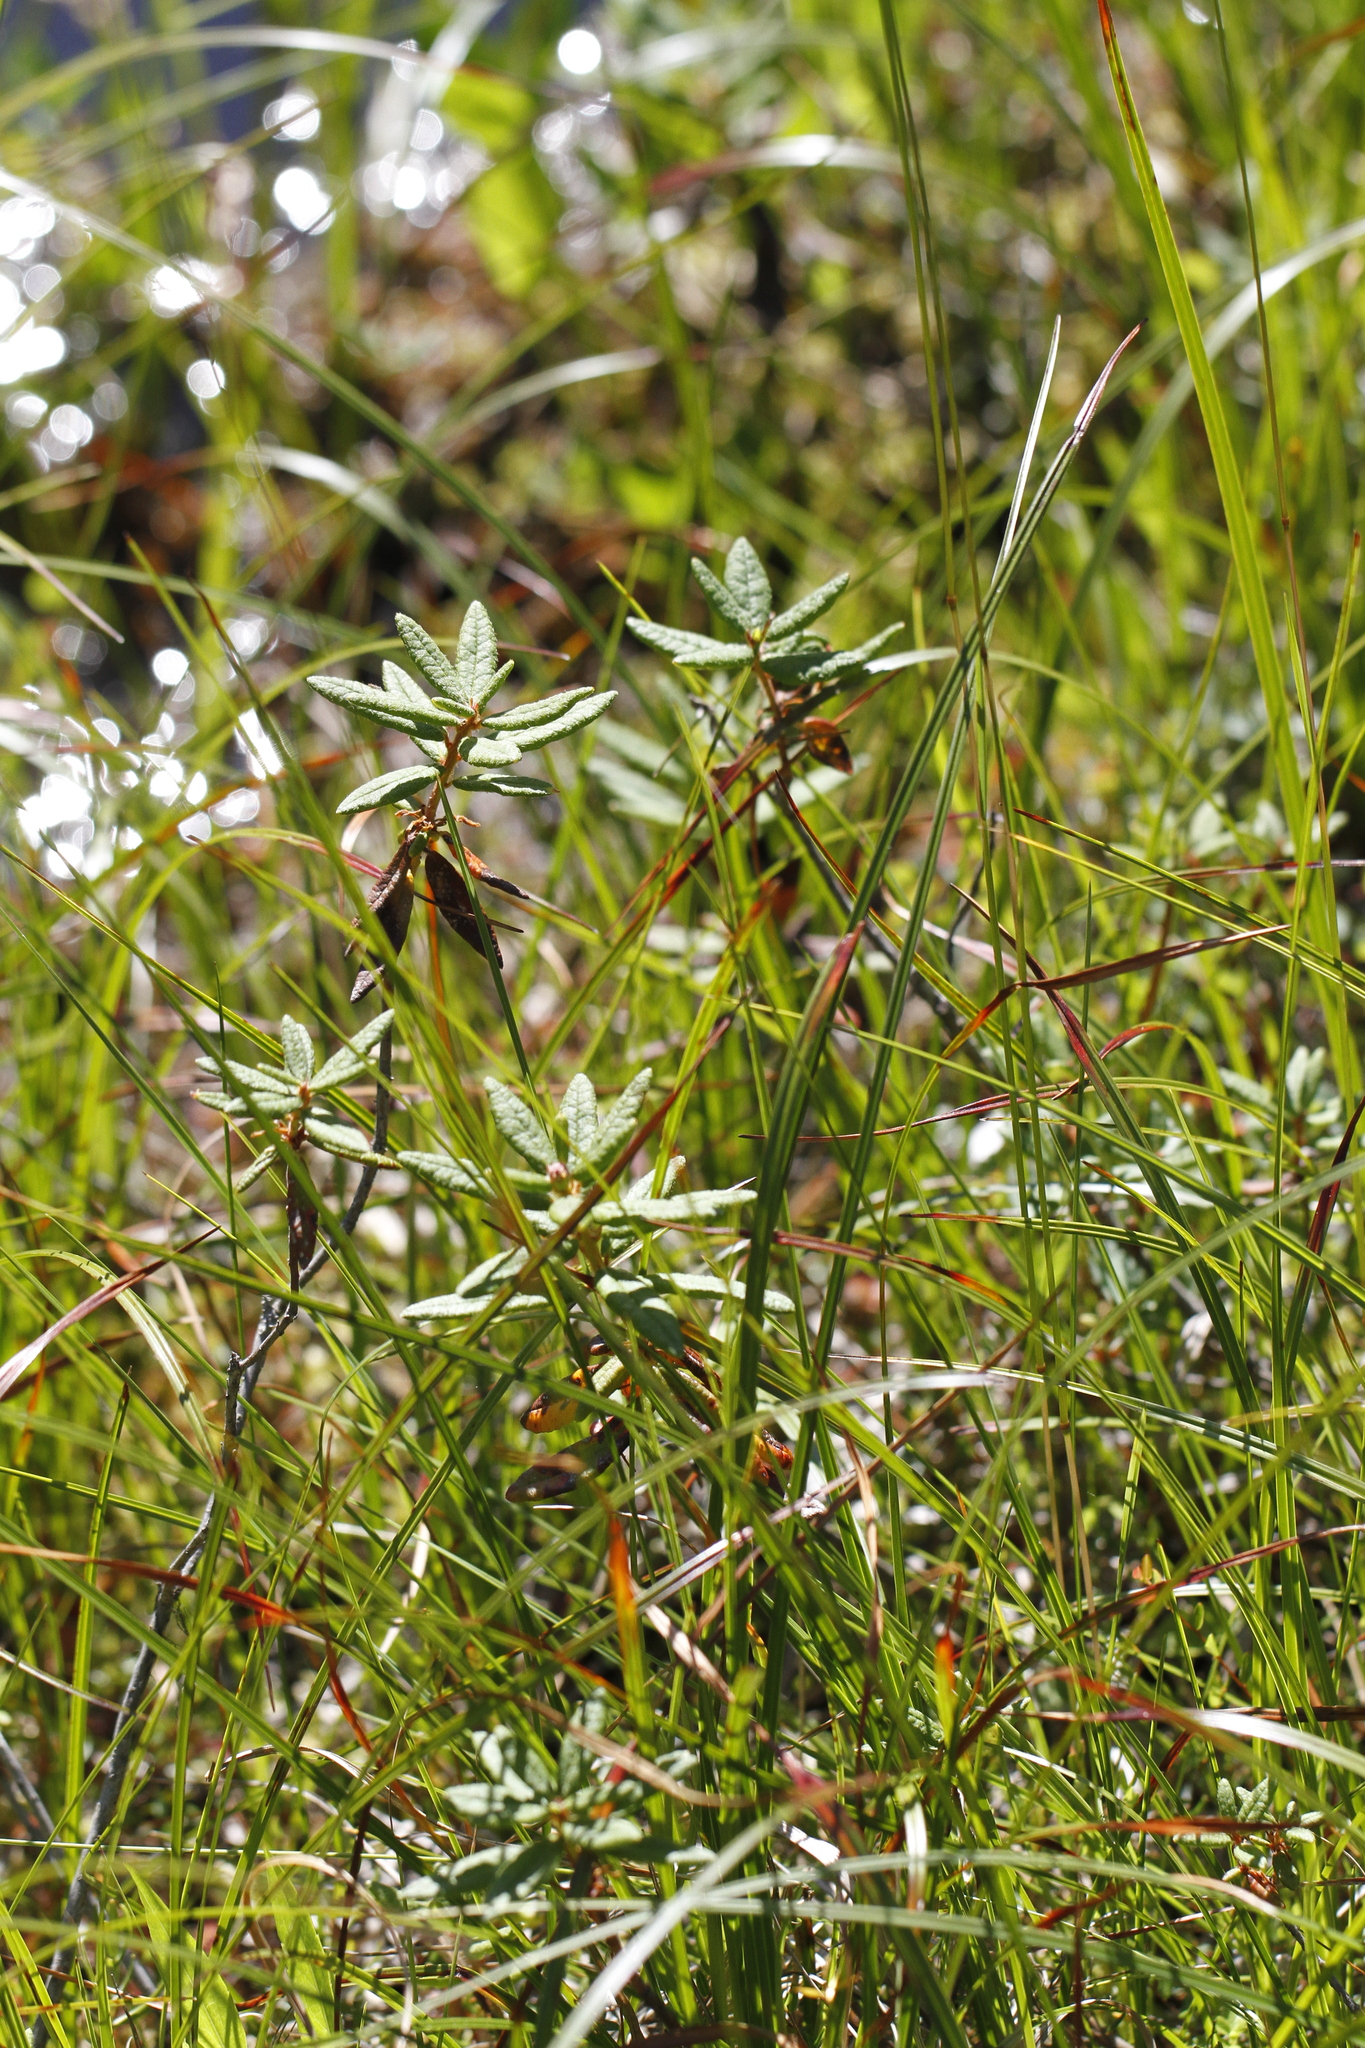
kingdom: Plantae
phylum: Tracheophyta
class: Magnoliopsida
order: Ericales
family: Ericaceae
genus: Rhododendron
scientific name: Rhododendron groenlandicum
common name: Bog labrador tea
